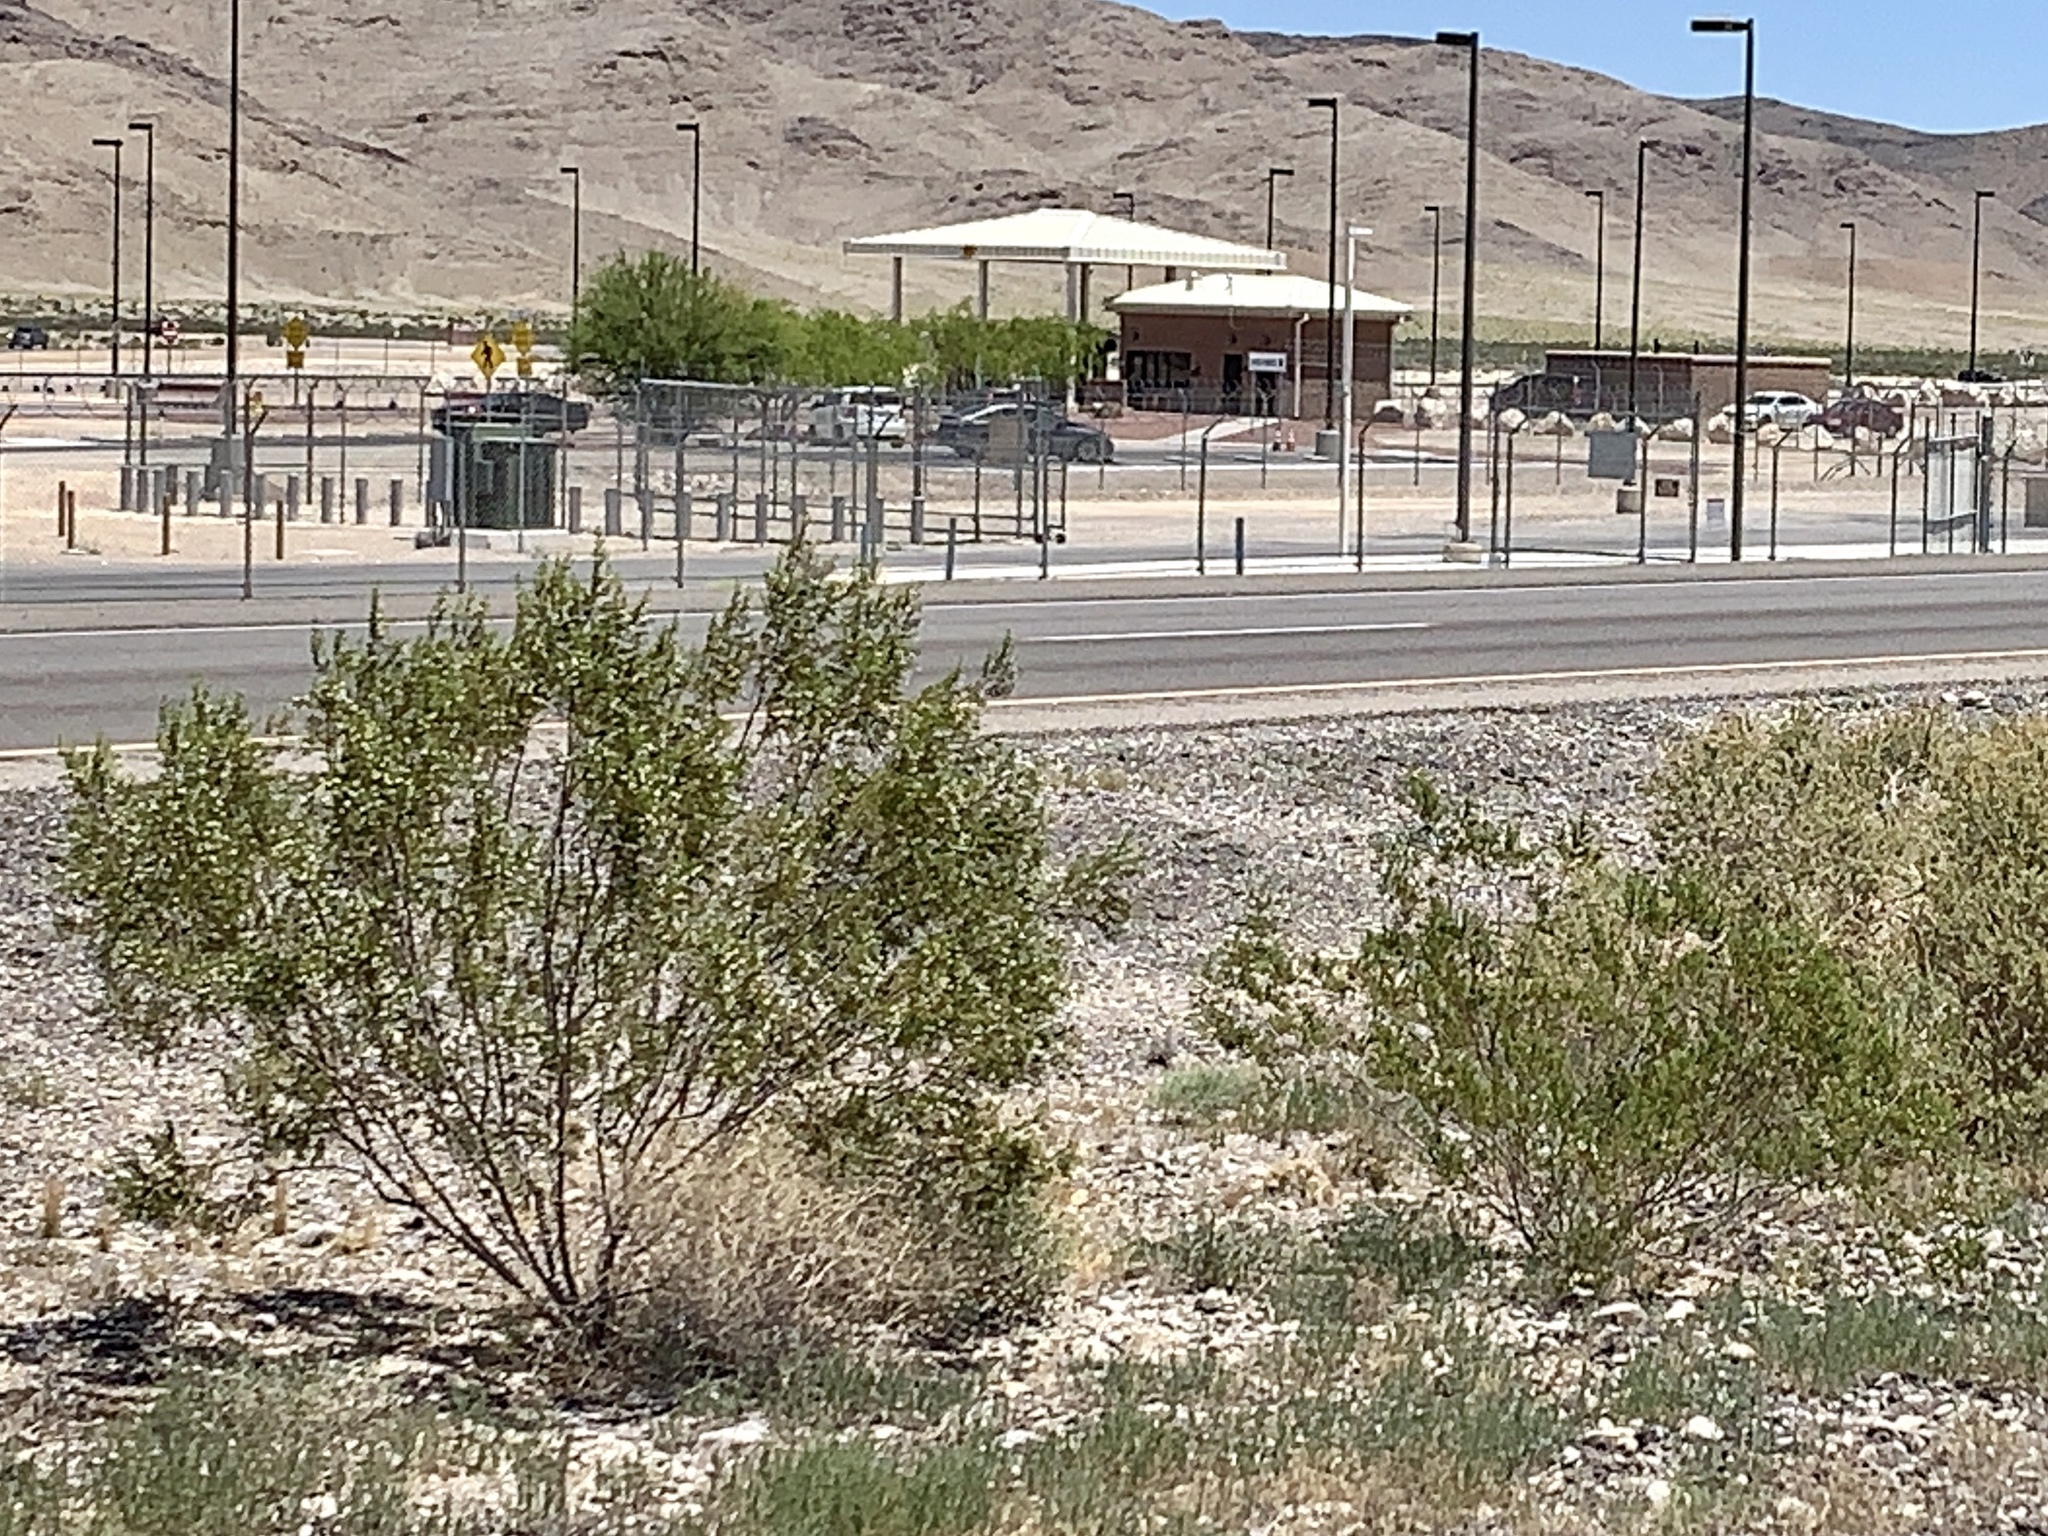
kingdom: Plantae
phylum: Tracheophyta
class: Magnoliopsida
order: Zygophyllales
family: Zygophyllaceae
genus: Larrea
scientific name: Larrea tridentata
